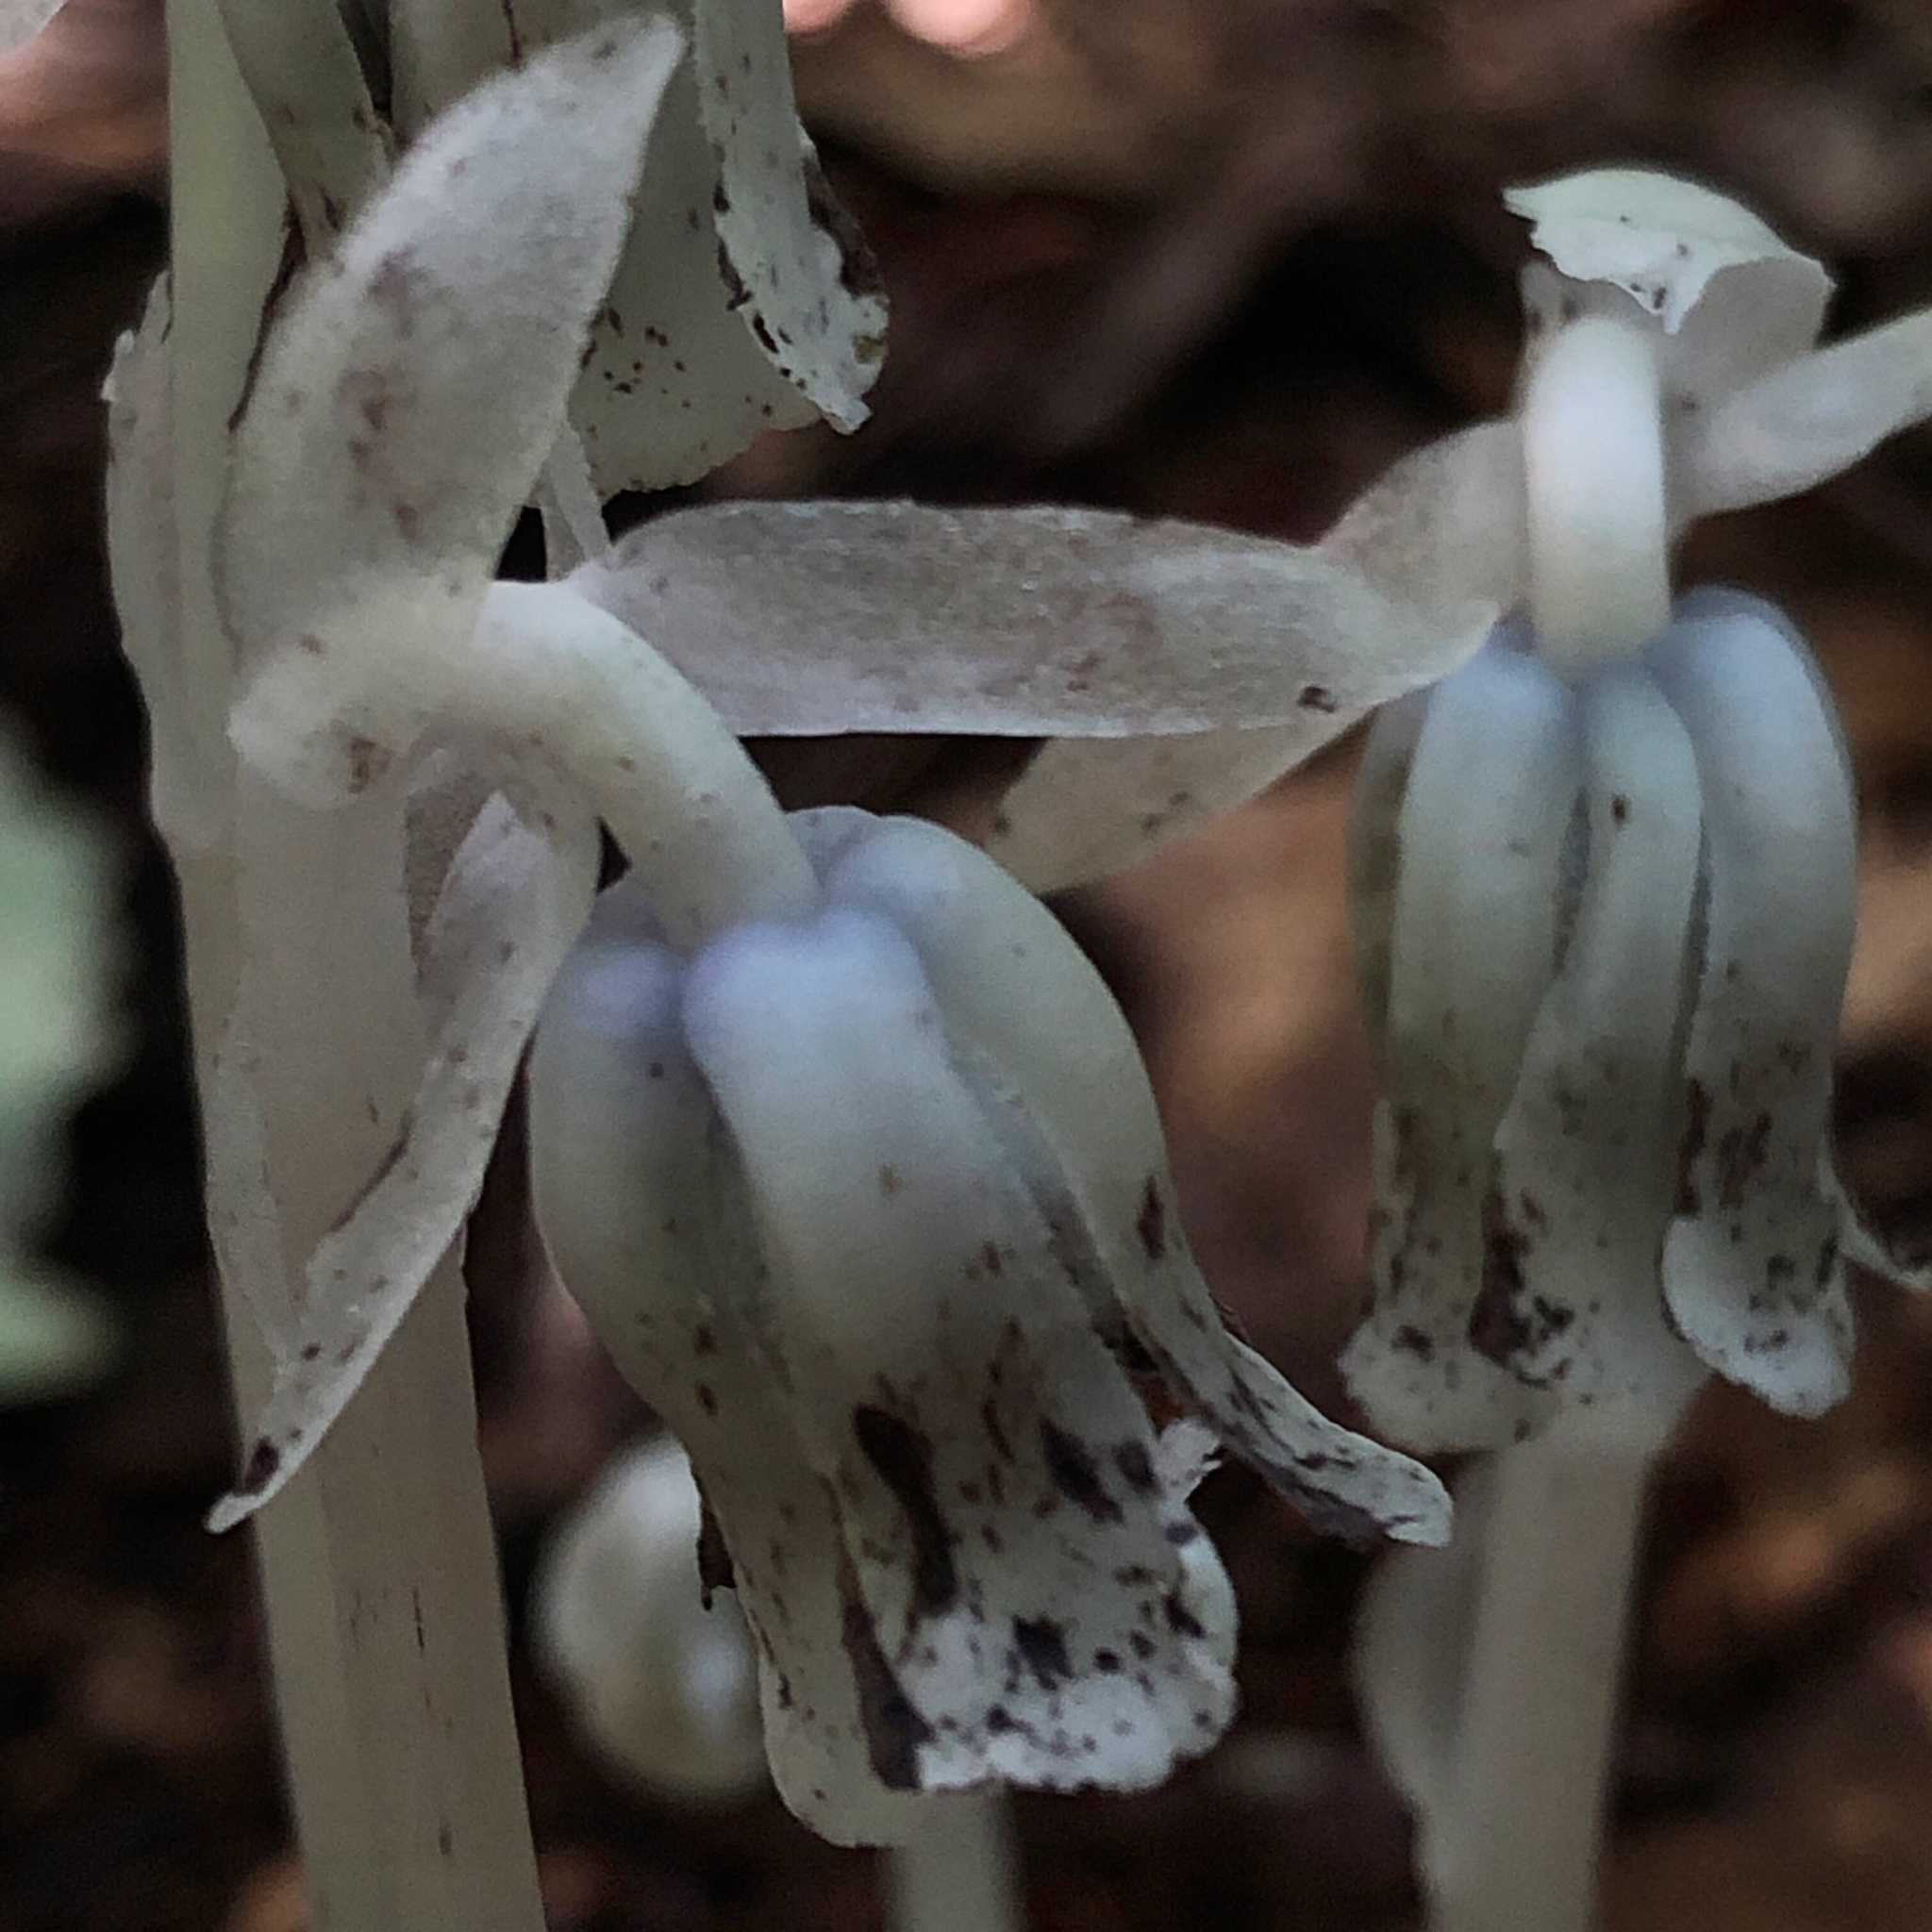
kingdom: Plantae
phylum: Tracheophyta
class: Magnoliopsida
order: Ericales
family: Ericaceae
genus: Monotropa
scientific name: Monotropa uniflora
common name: Convulsion root
